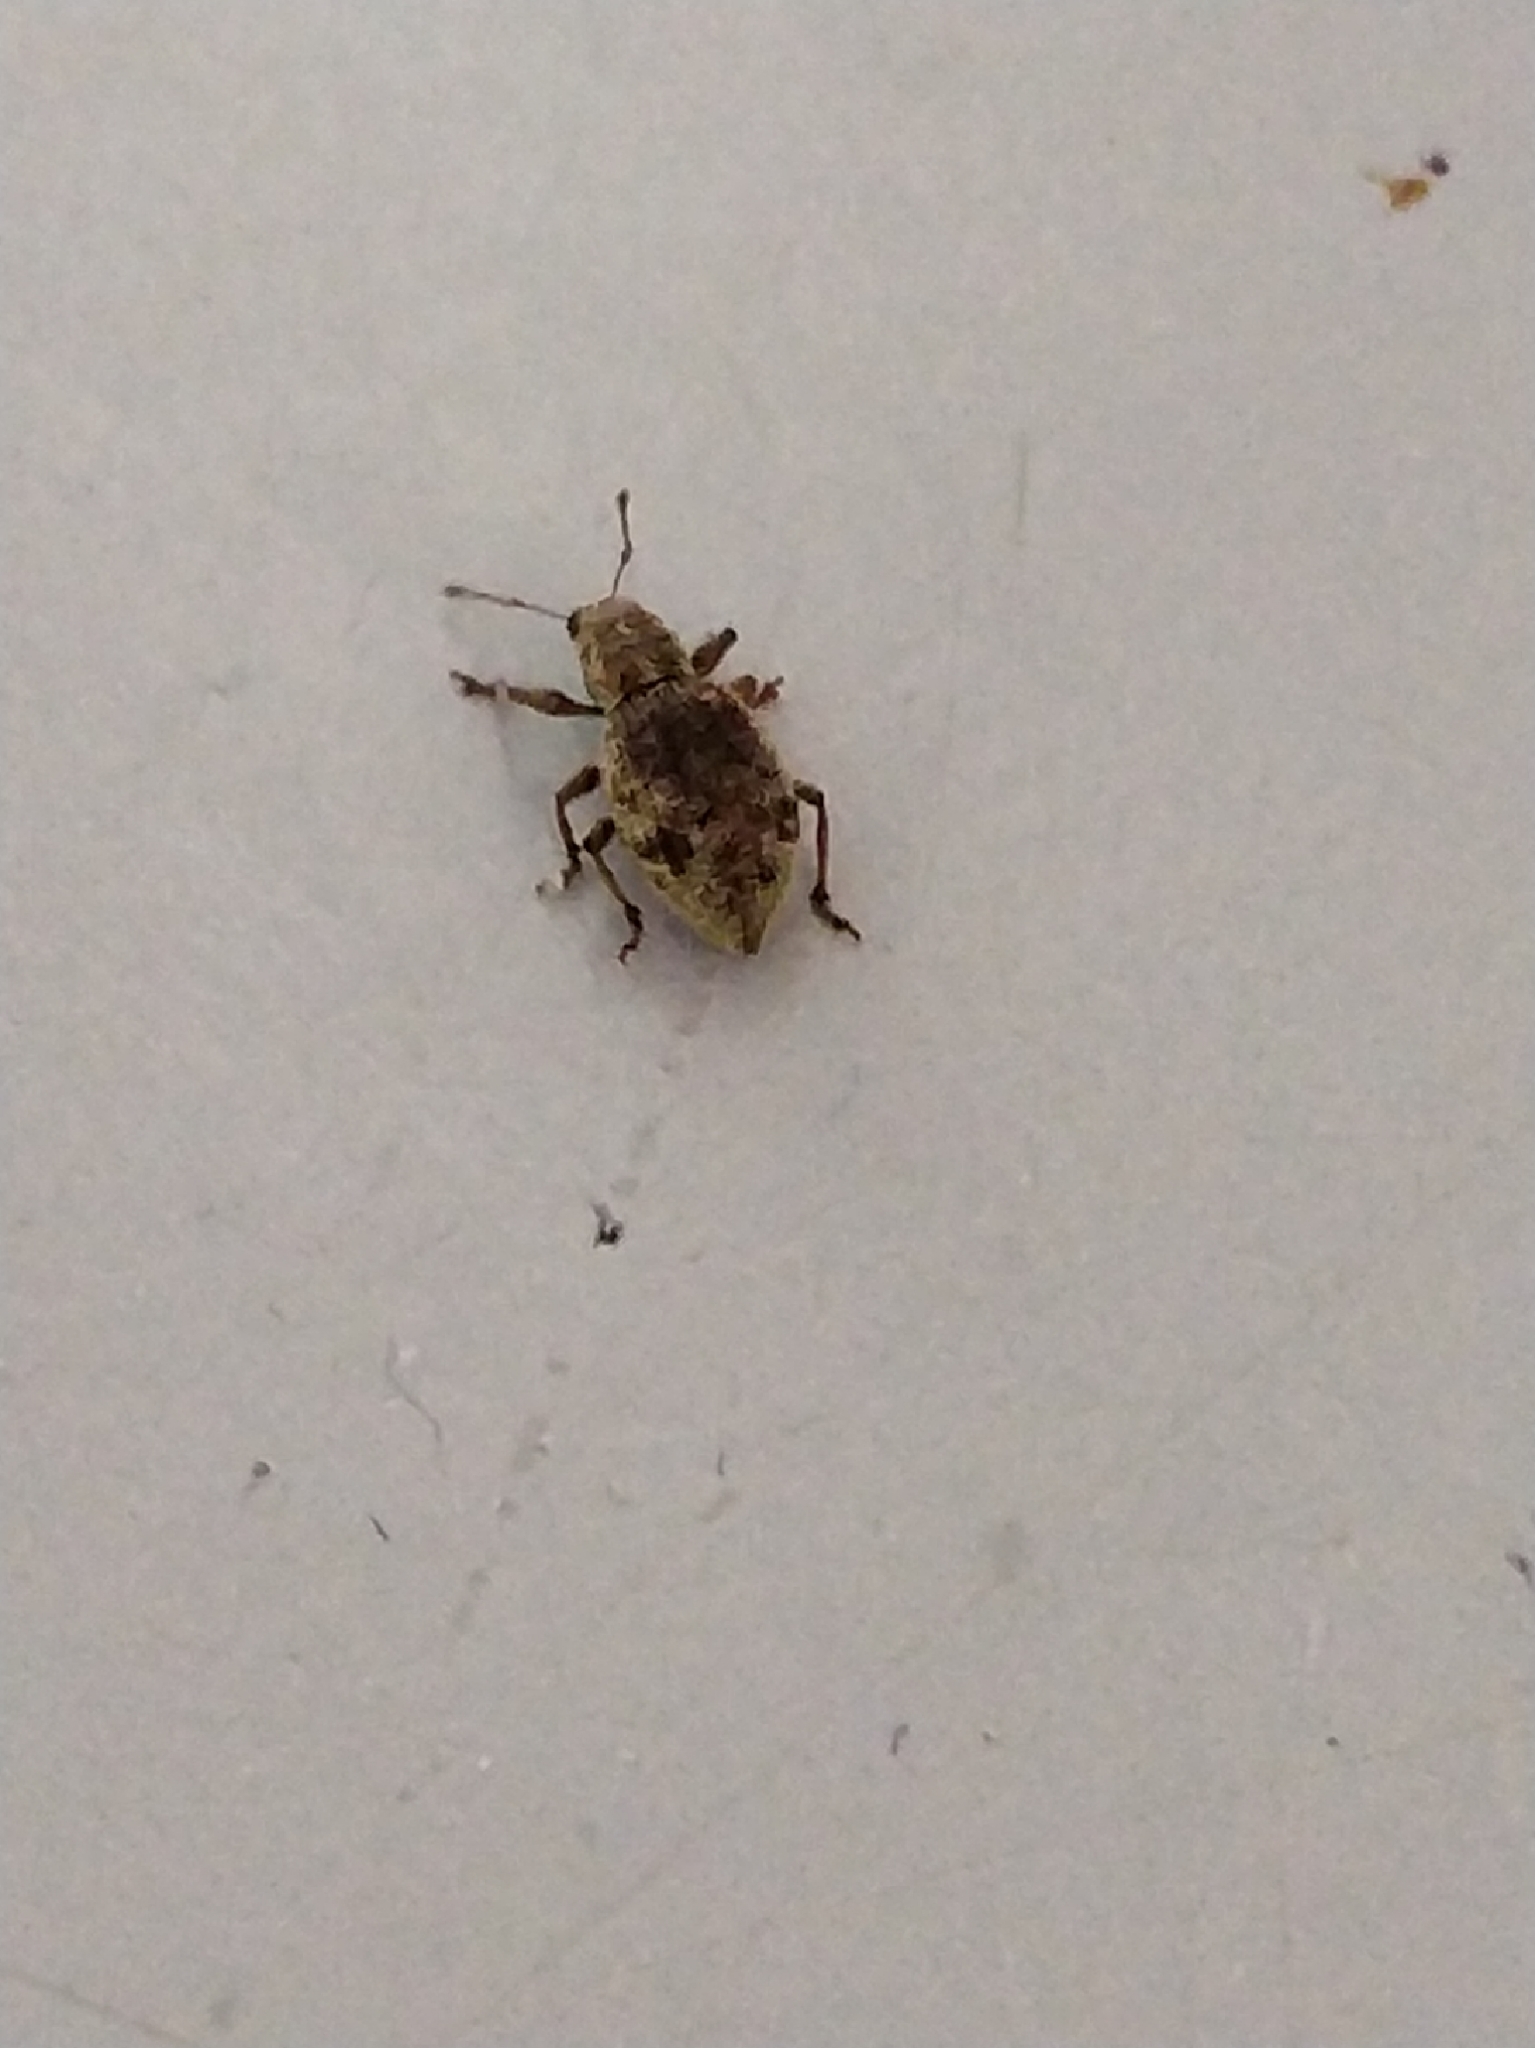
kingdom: Animalia
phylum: Arthropoda
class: Insecta
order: Coleoptera
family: Curculionidae
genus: Sciaphilus
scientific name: Sciaphilus asperatus
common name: Weevil
